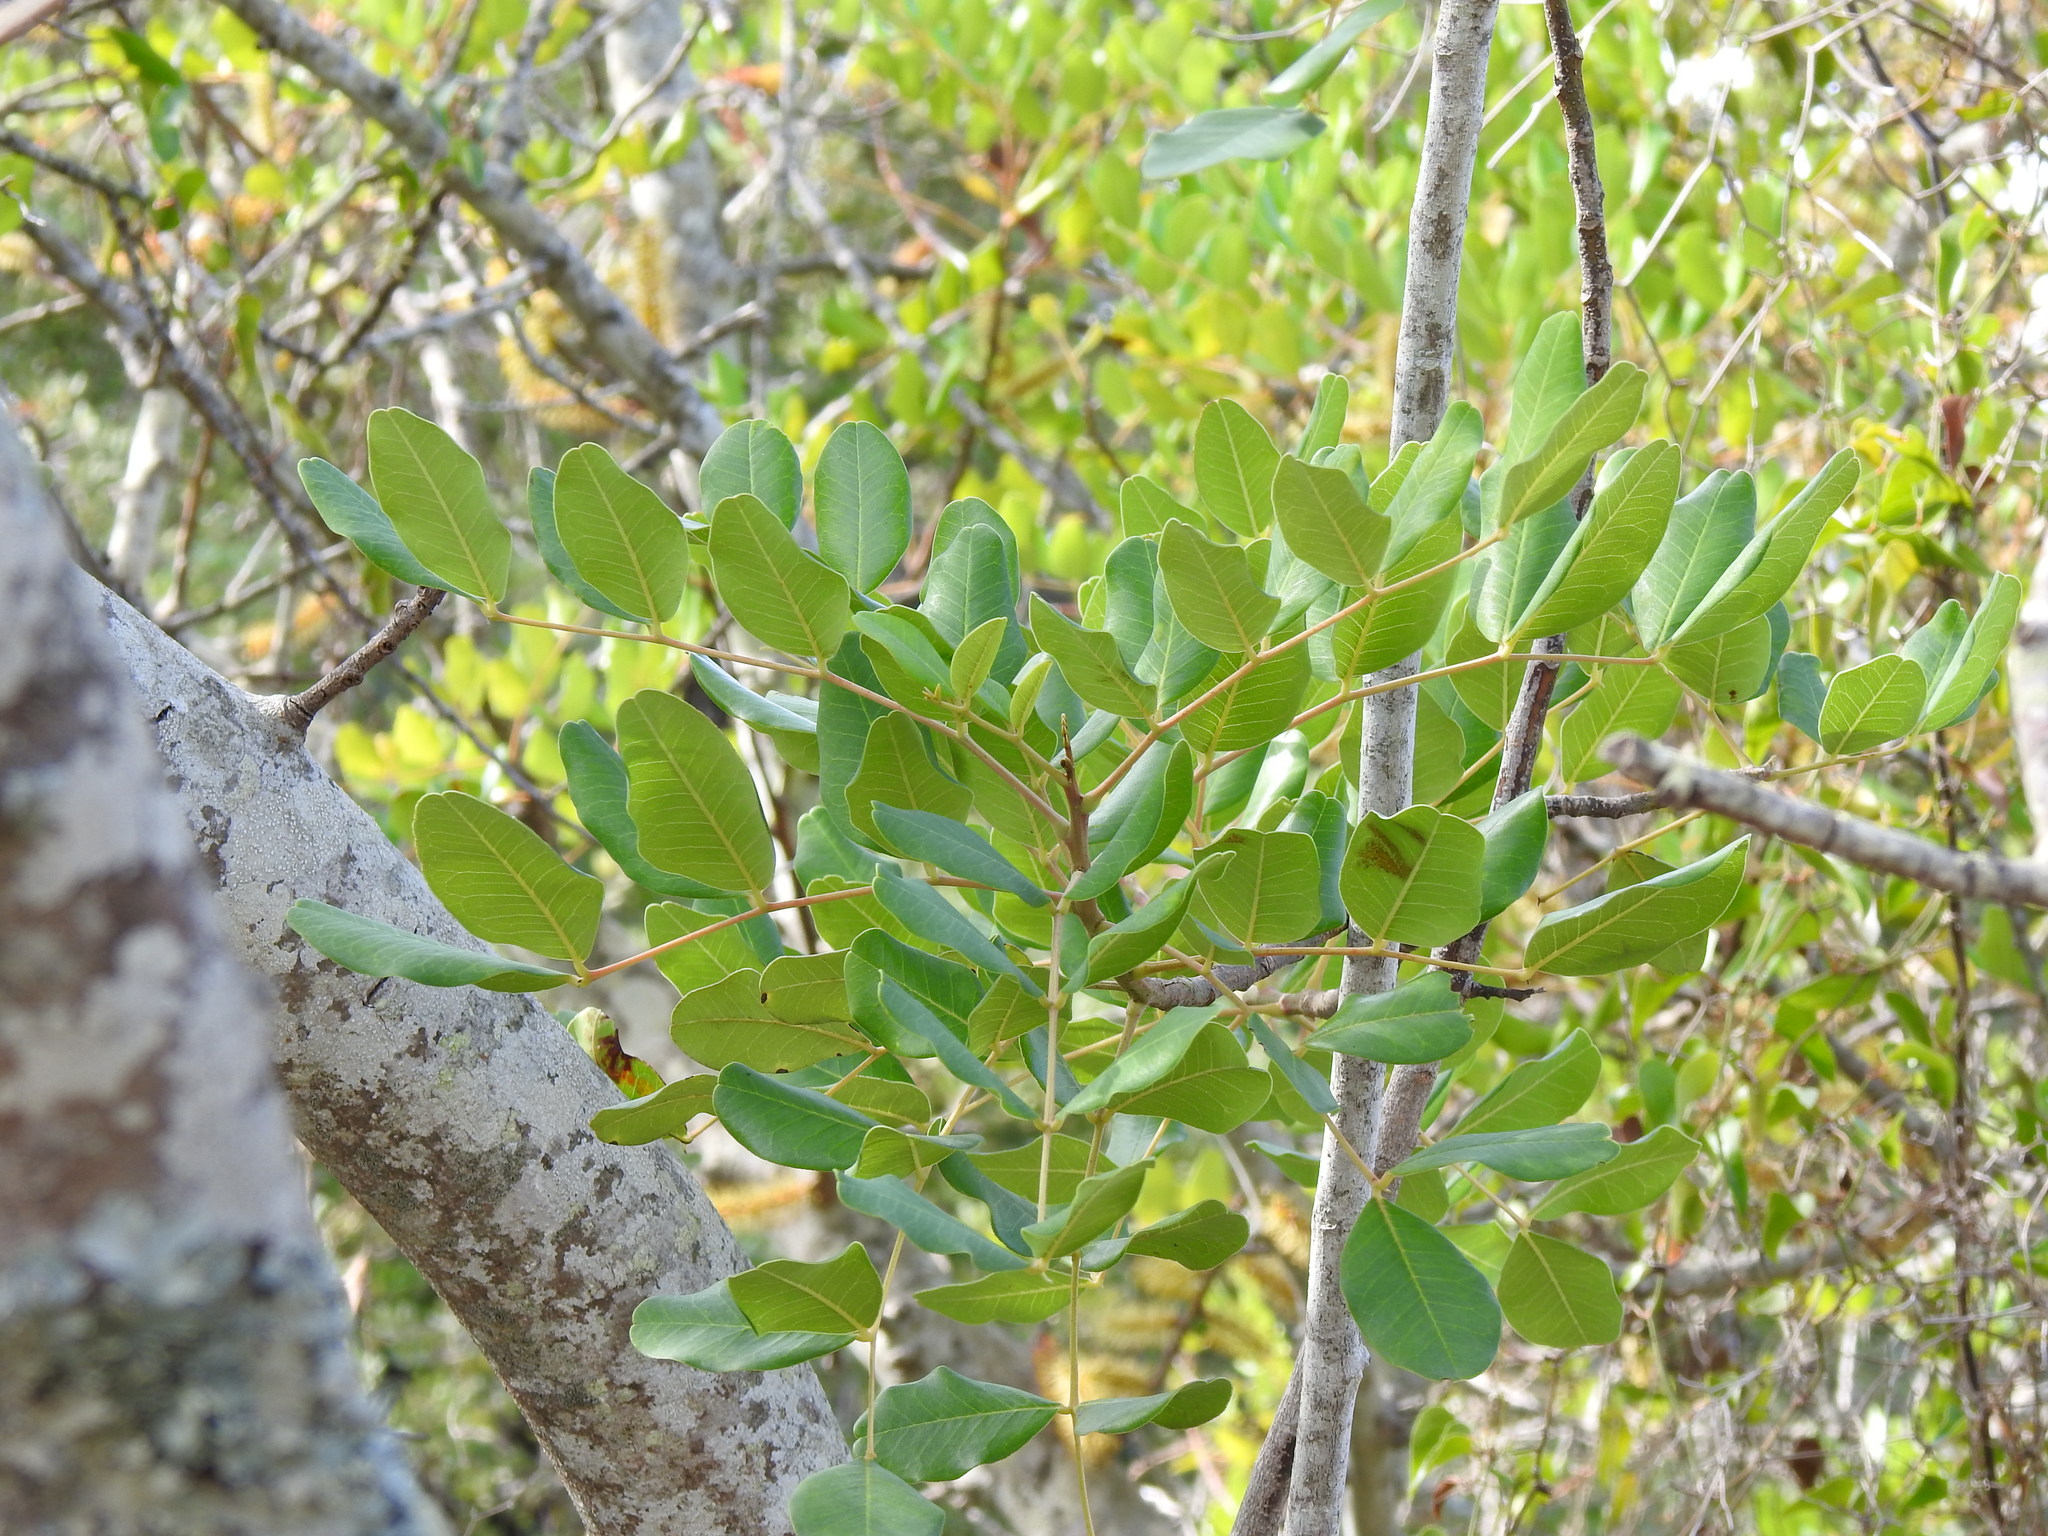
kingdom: Plantae
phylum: Tracheophyta
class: Magnoliopsida
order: Fabales
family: Fabaceae
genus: Ceratonia
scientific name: Ceratonia siliqua
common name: Carob
